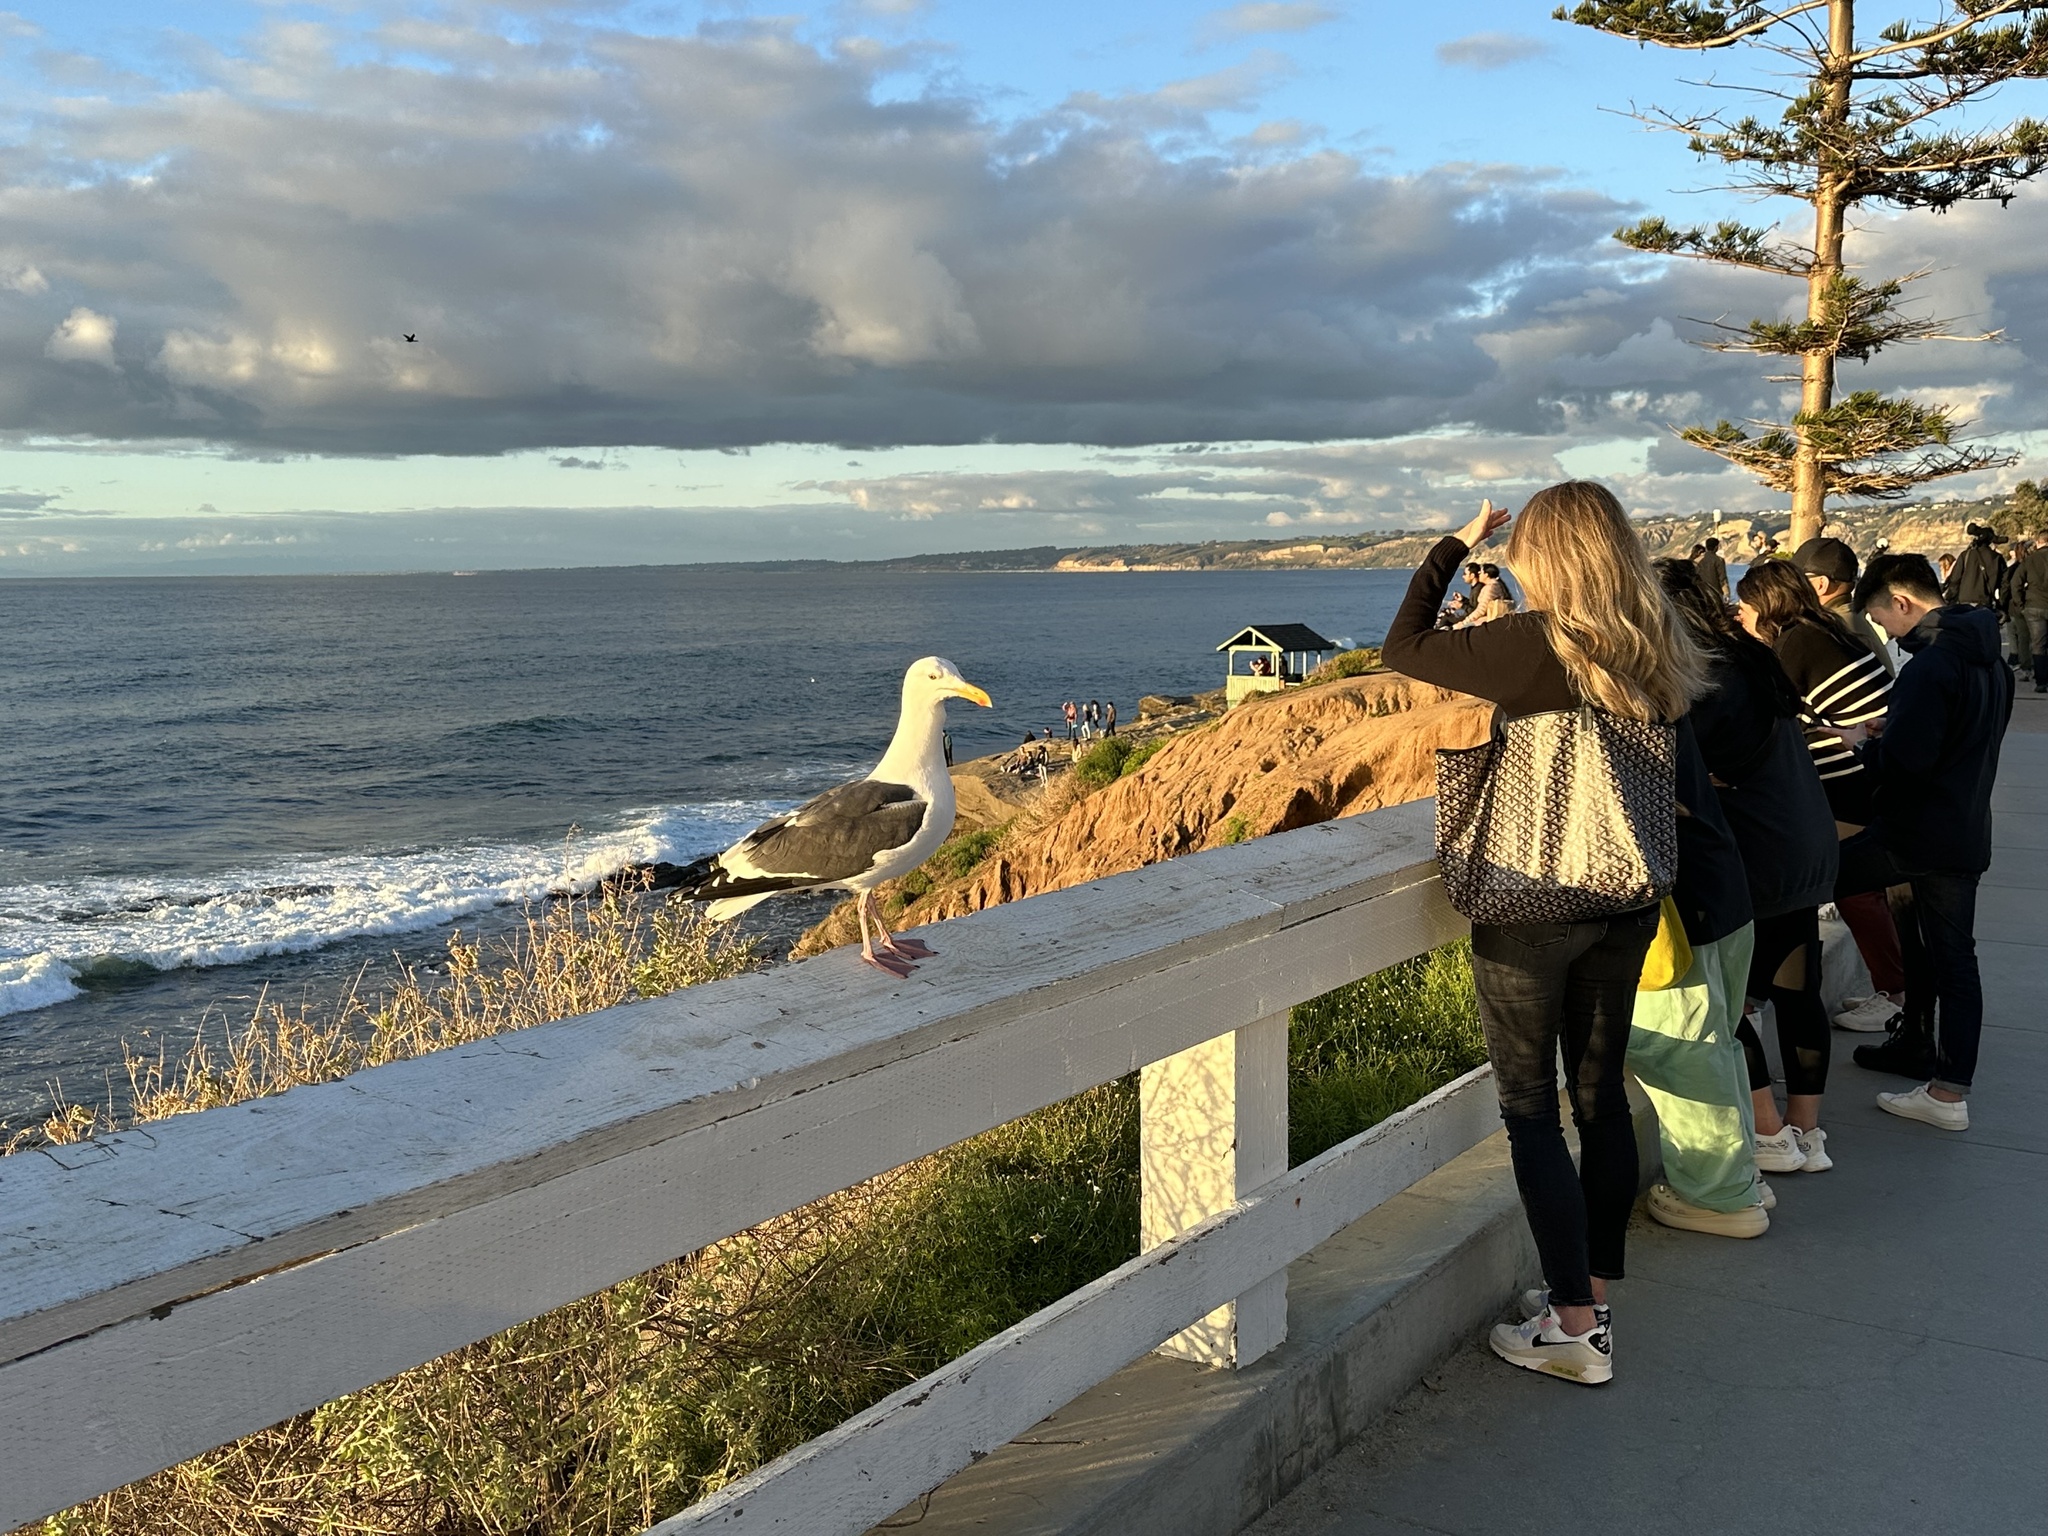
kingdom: Animalia
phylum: Chordata
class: Aves
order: Charadriiformes
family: Laridae
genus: Larus
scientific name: Larus occidentalis
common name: Western gull
